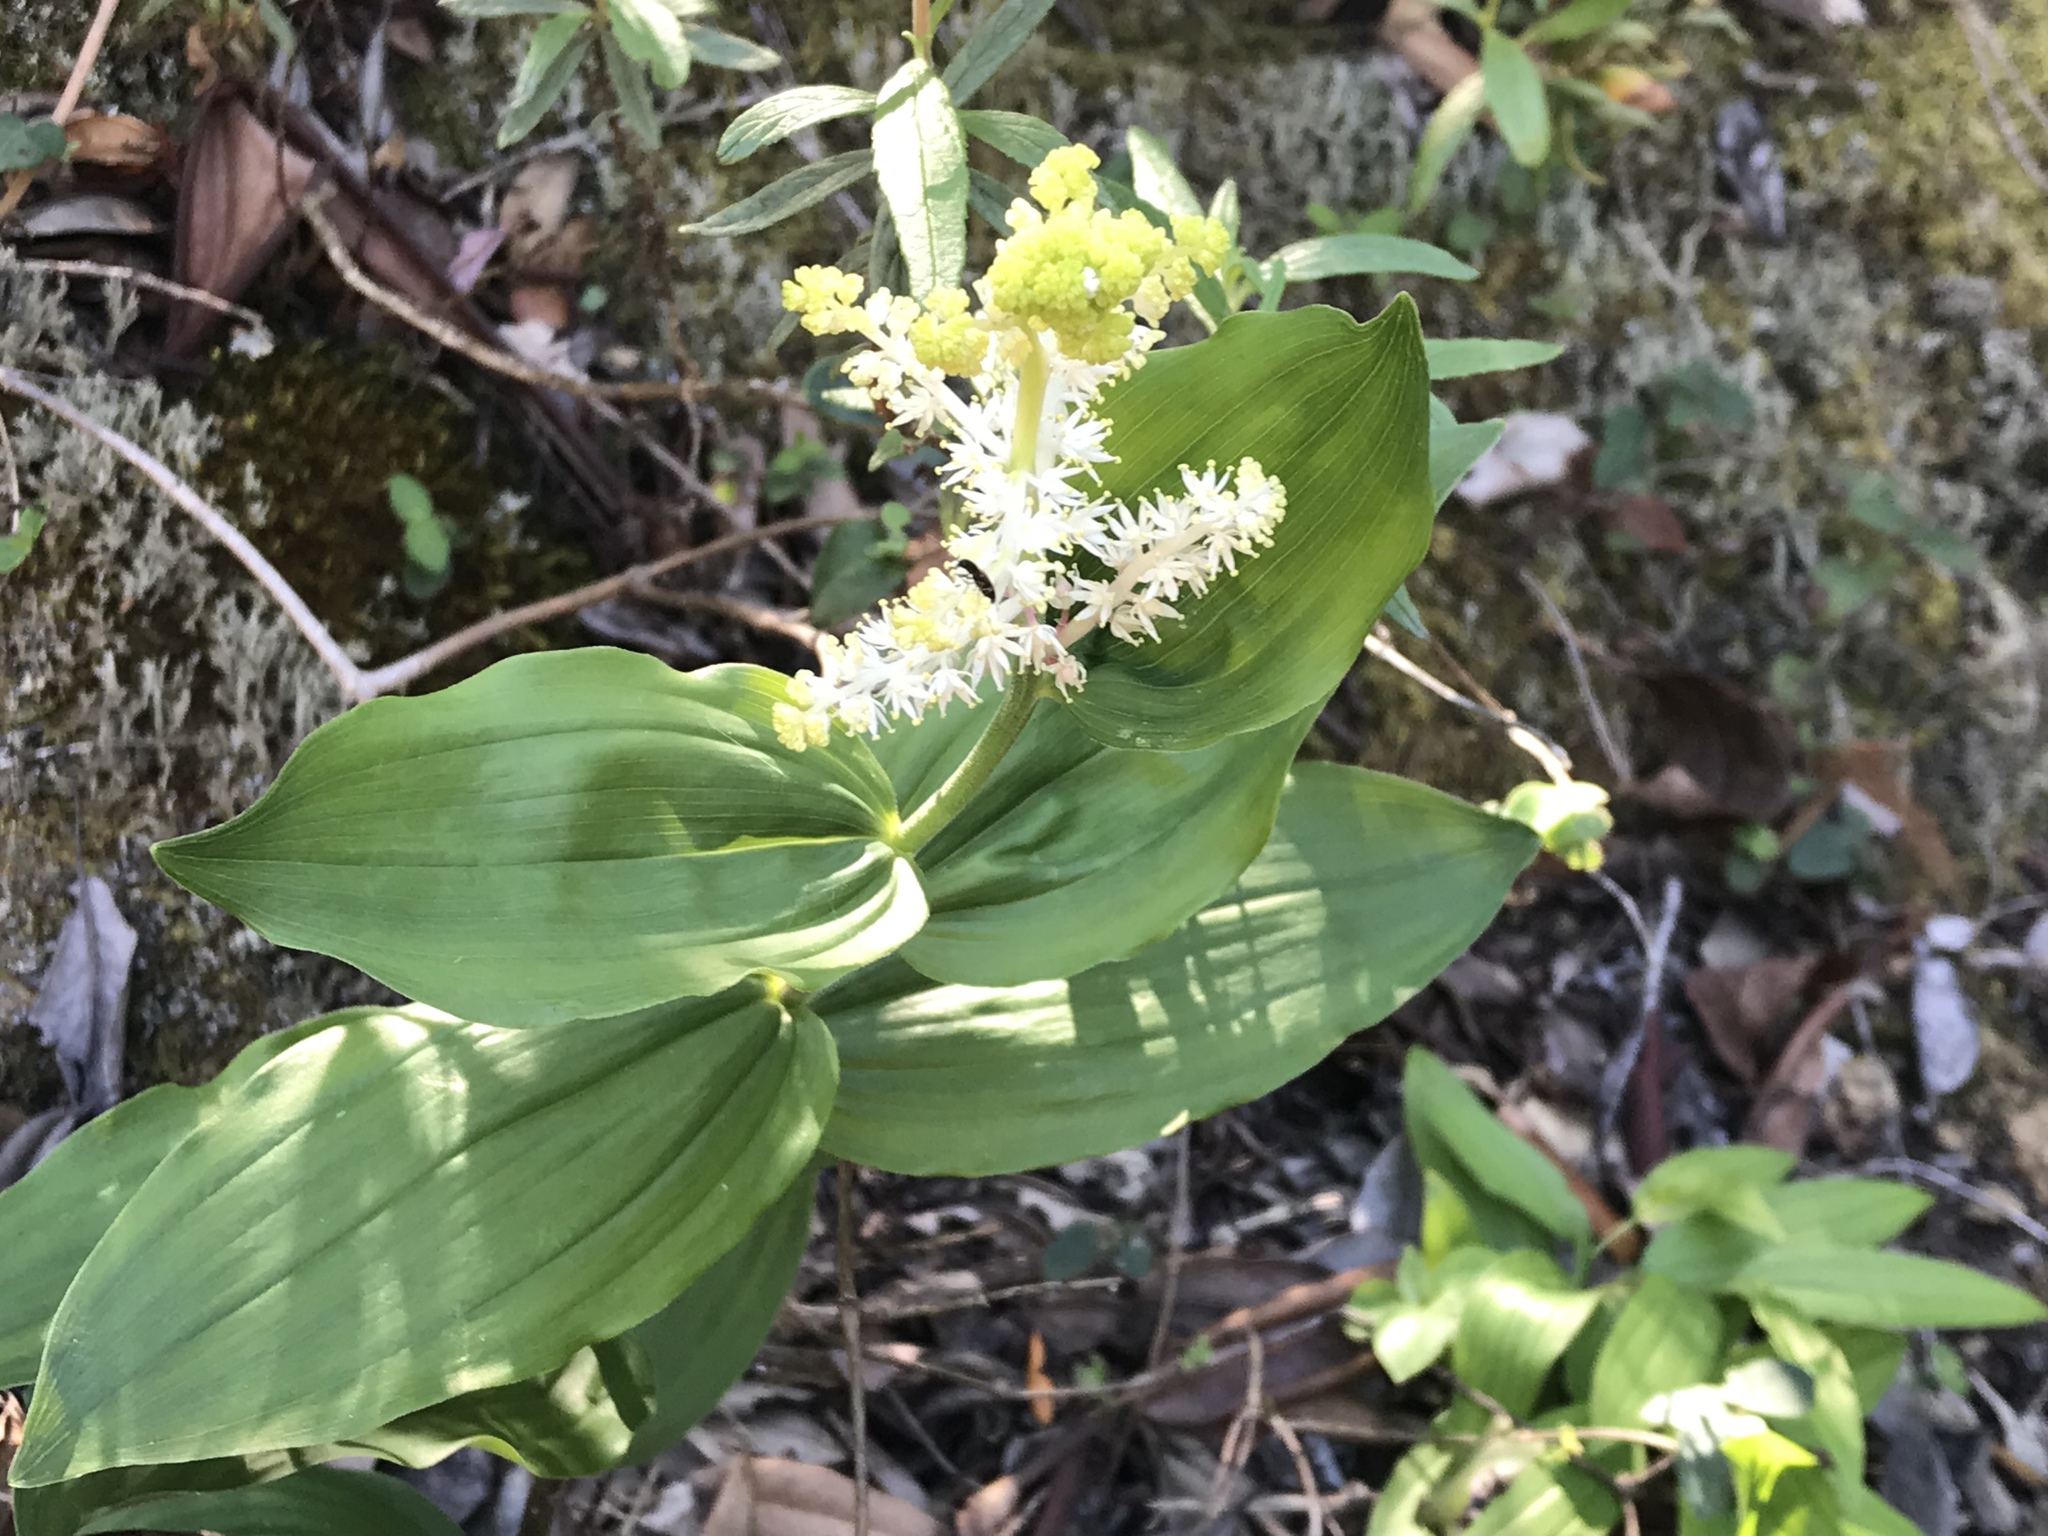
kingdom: Plantae
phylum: Tracheophyta
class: Liliopsida
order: Asparagales
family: Asparagaceae
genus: Maianthemum
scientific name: Maianthemum racemosum
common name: False spikenard
